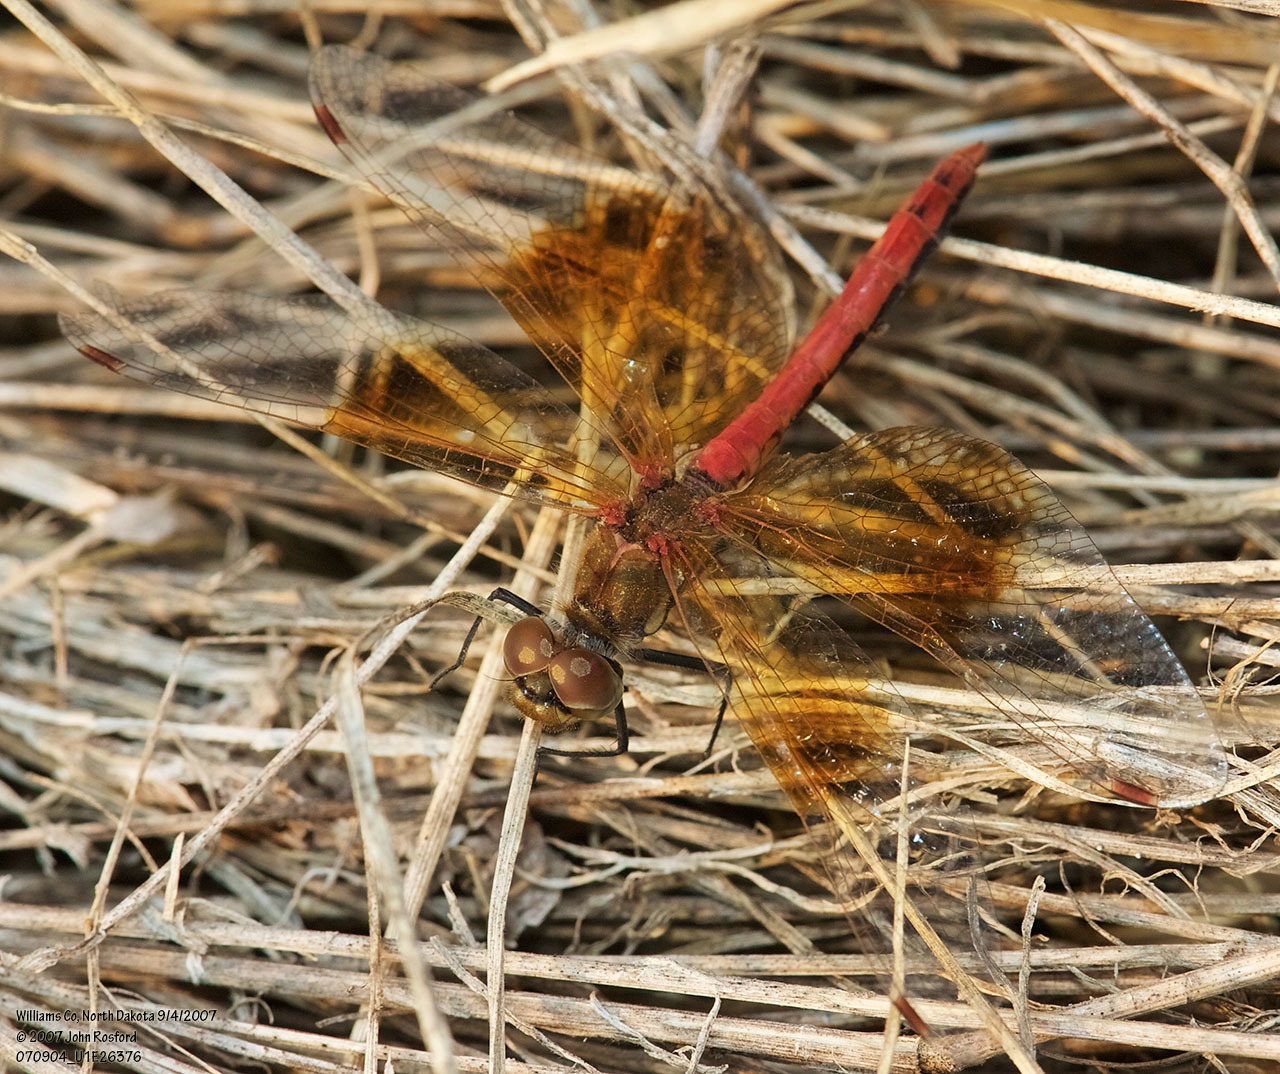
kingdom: Animalia
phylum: Arthropoda
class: Insecta
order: Odonata
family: Libellulidae
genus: Sympetrum
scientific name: Sympetrum semicinctum
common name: Band-winged meadowhawk
